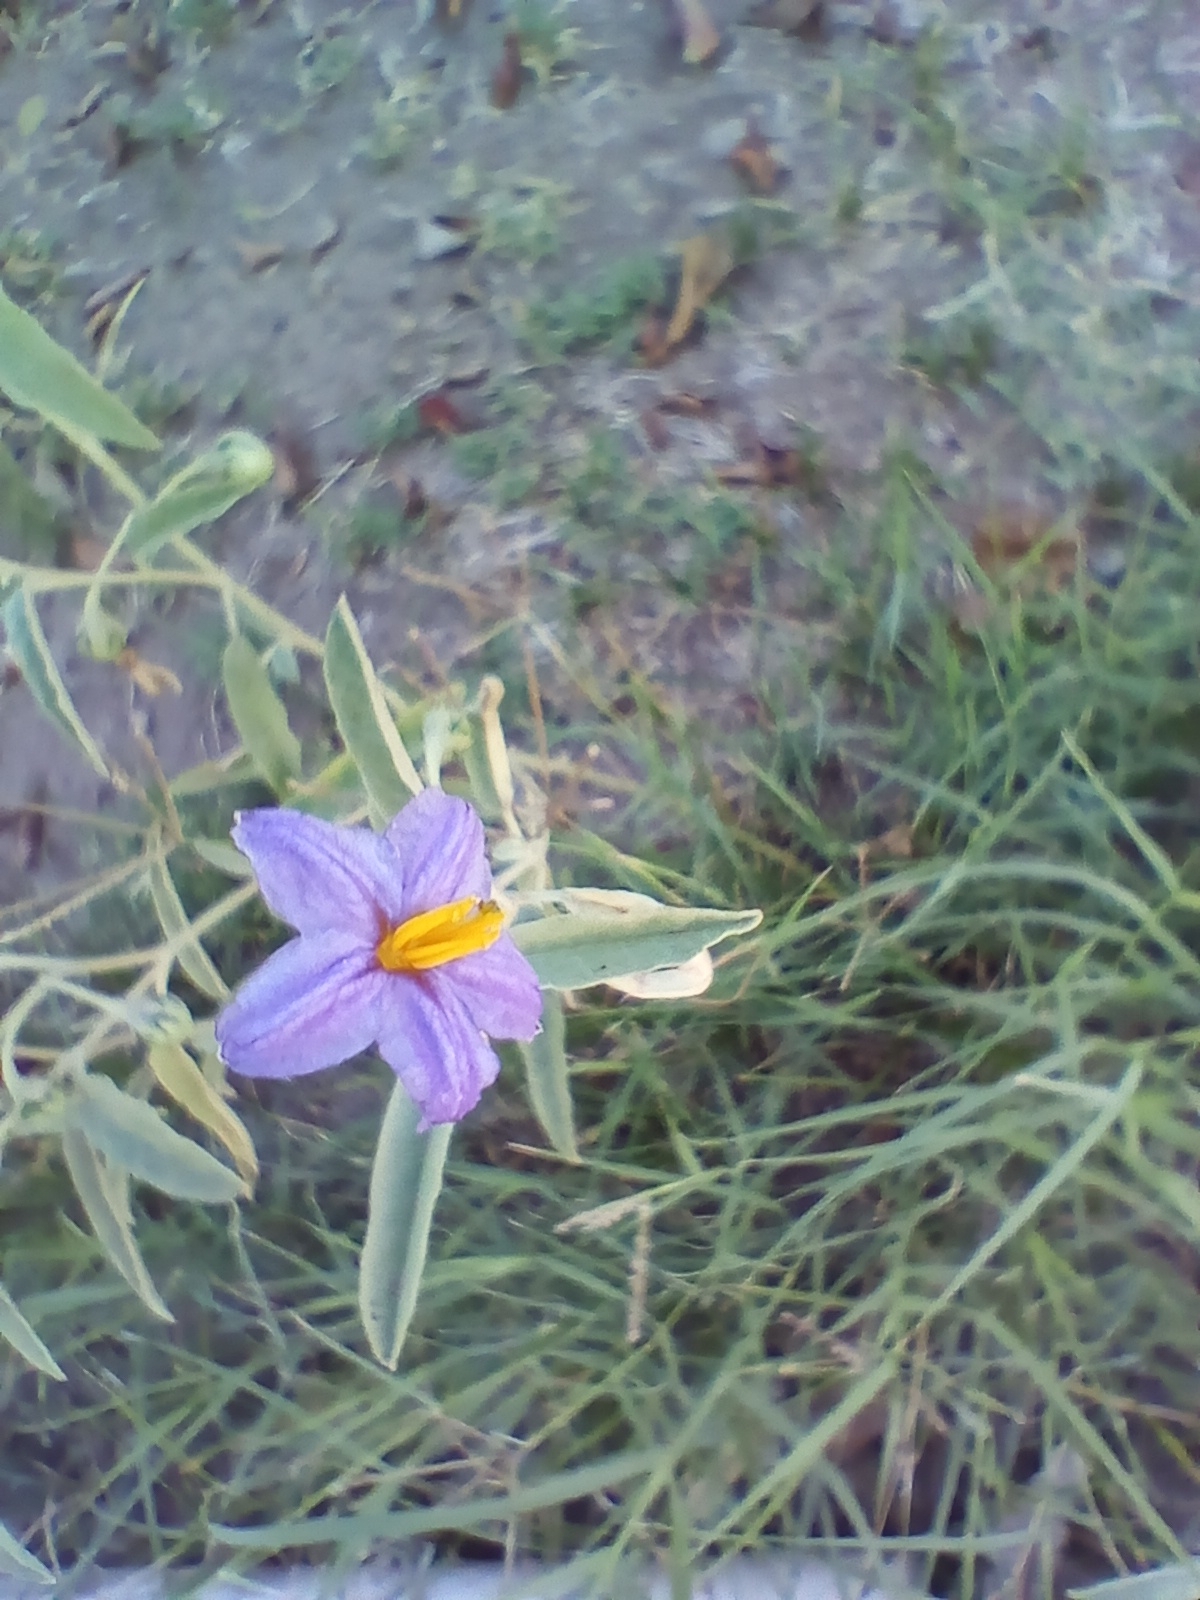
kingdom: Plantae
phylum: Tracheophyta
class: Magnoliopsida
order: Solanales
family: Solanaceae
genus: Solanum
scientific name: Solanum elaeagnifolium
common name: Silverleaf nightshade
